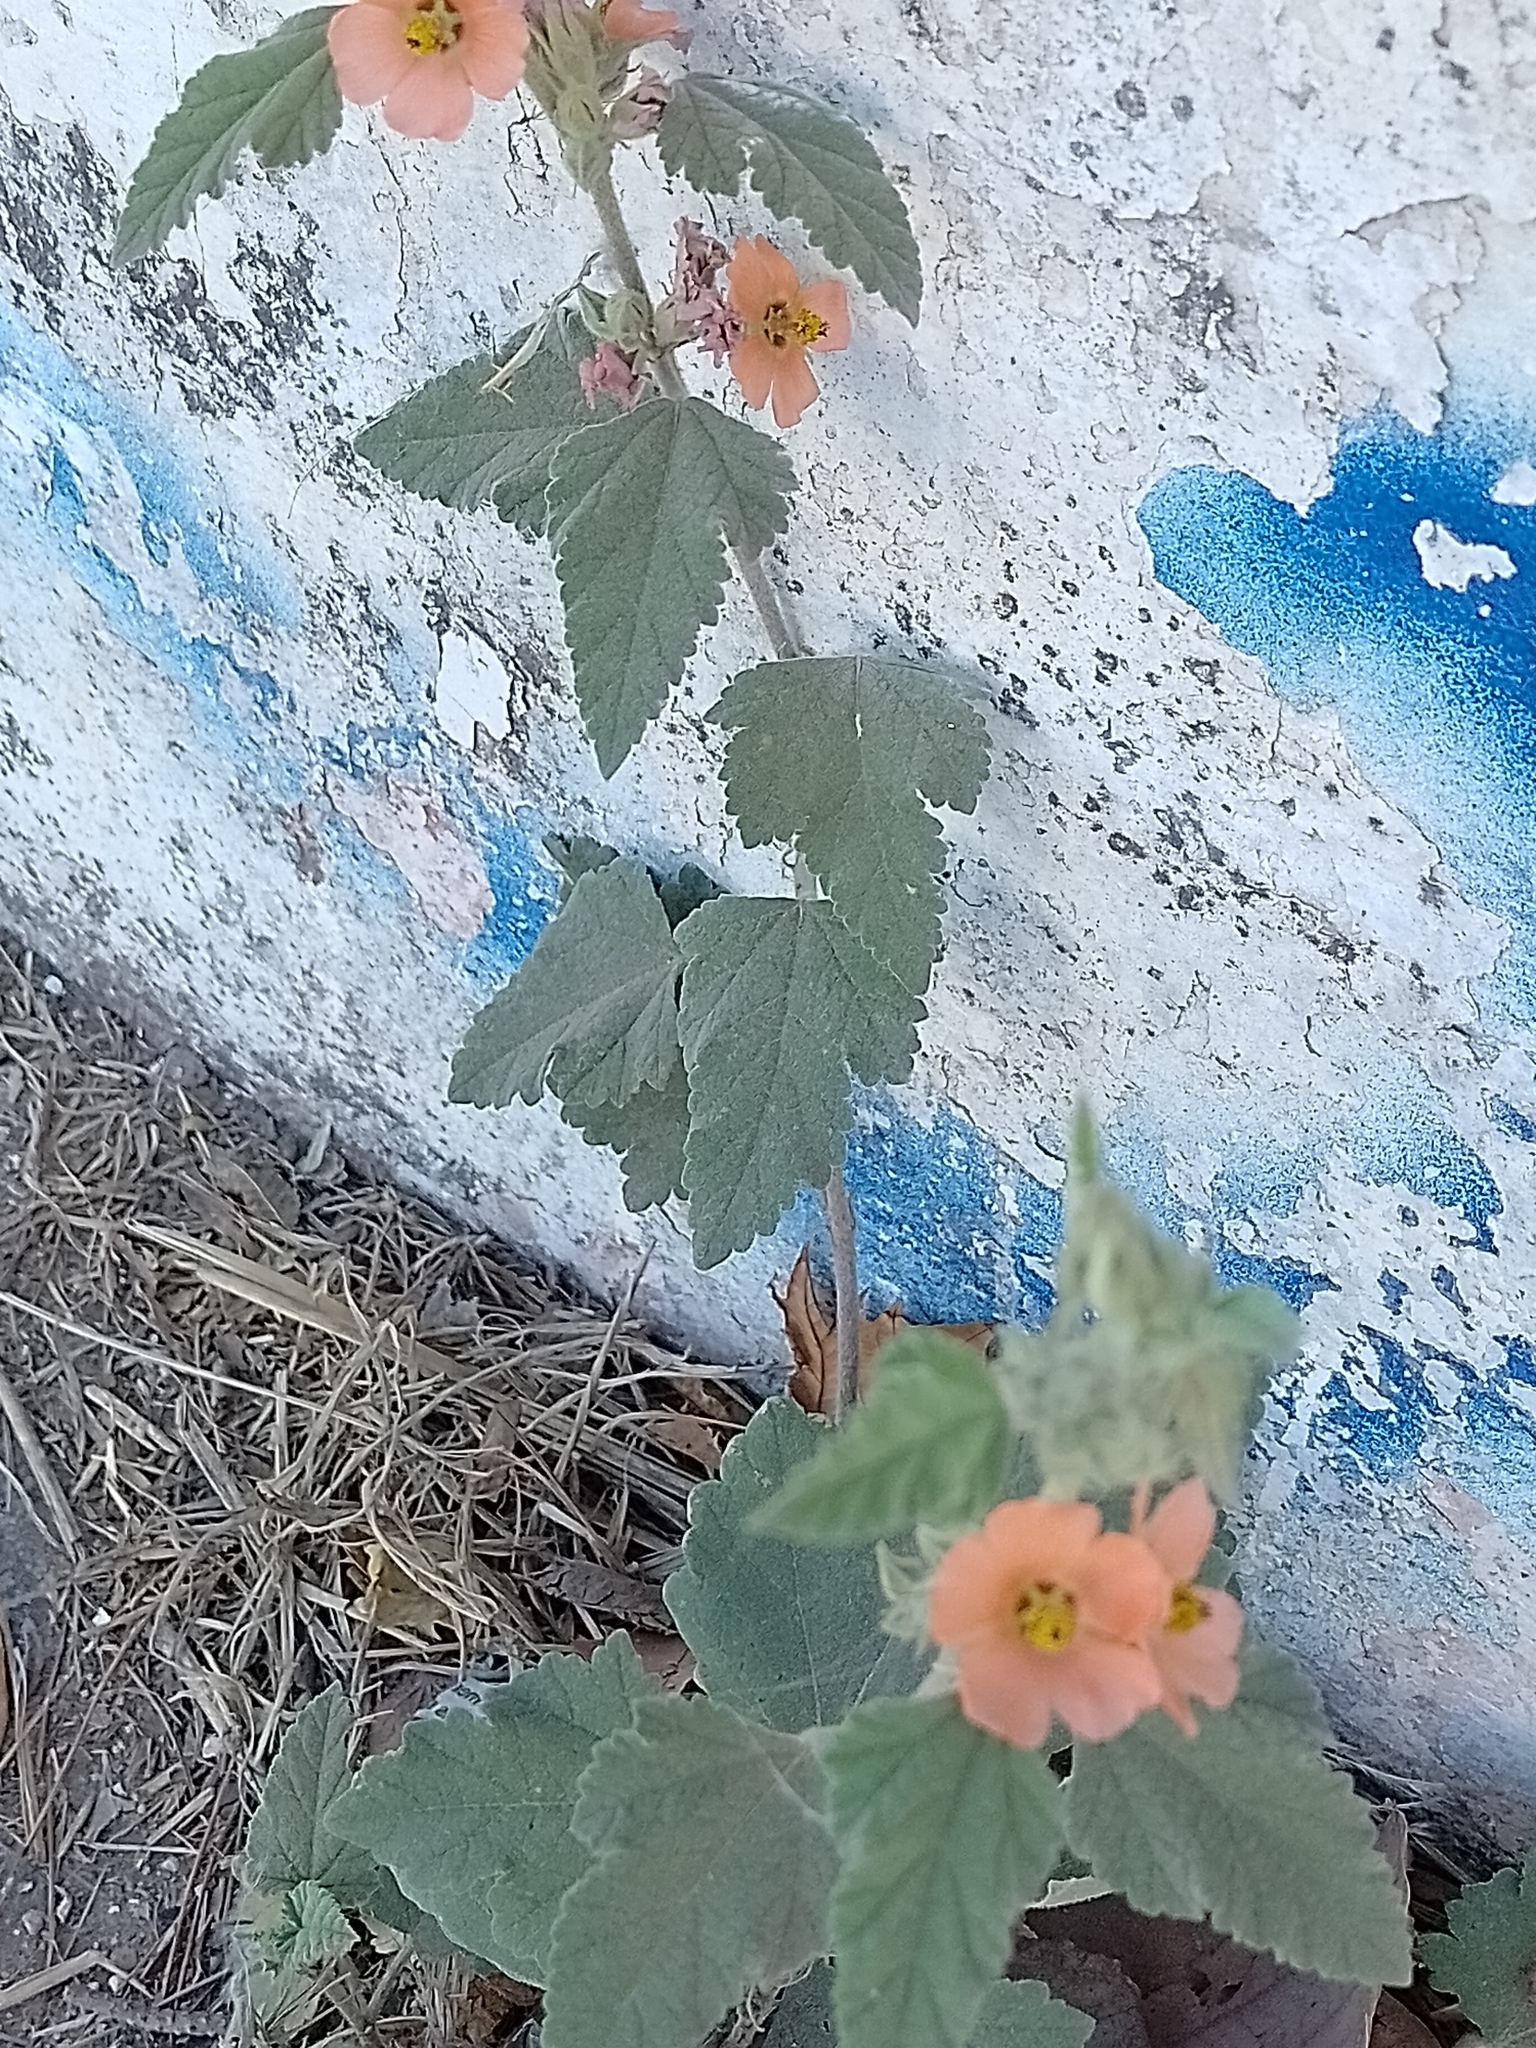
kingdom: Plantae
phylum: Tracheophyta
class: Magnoliopsida
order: Malvales
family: Malvaceae
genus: Sphaeralcea
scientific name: Sphaeralcea bonariensis
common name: Latin globemallow
